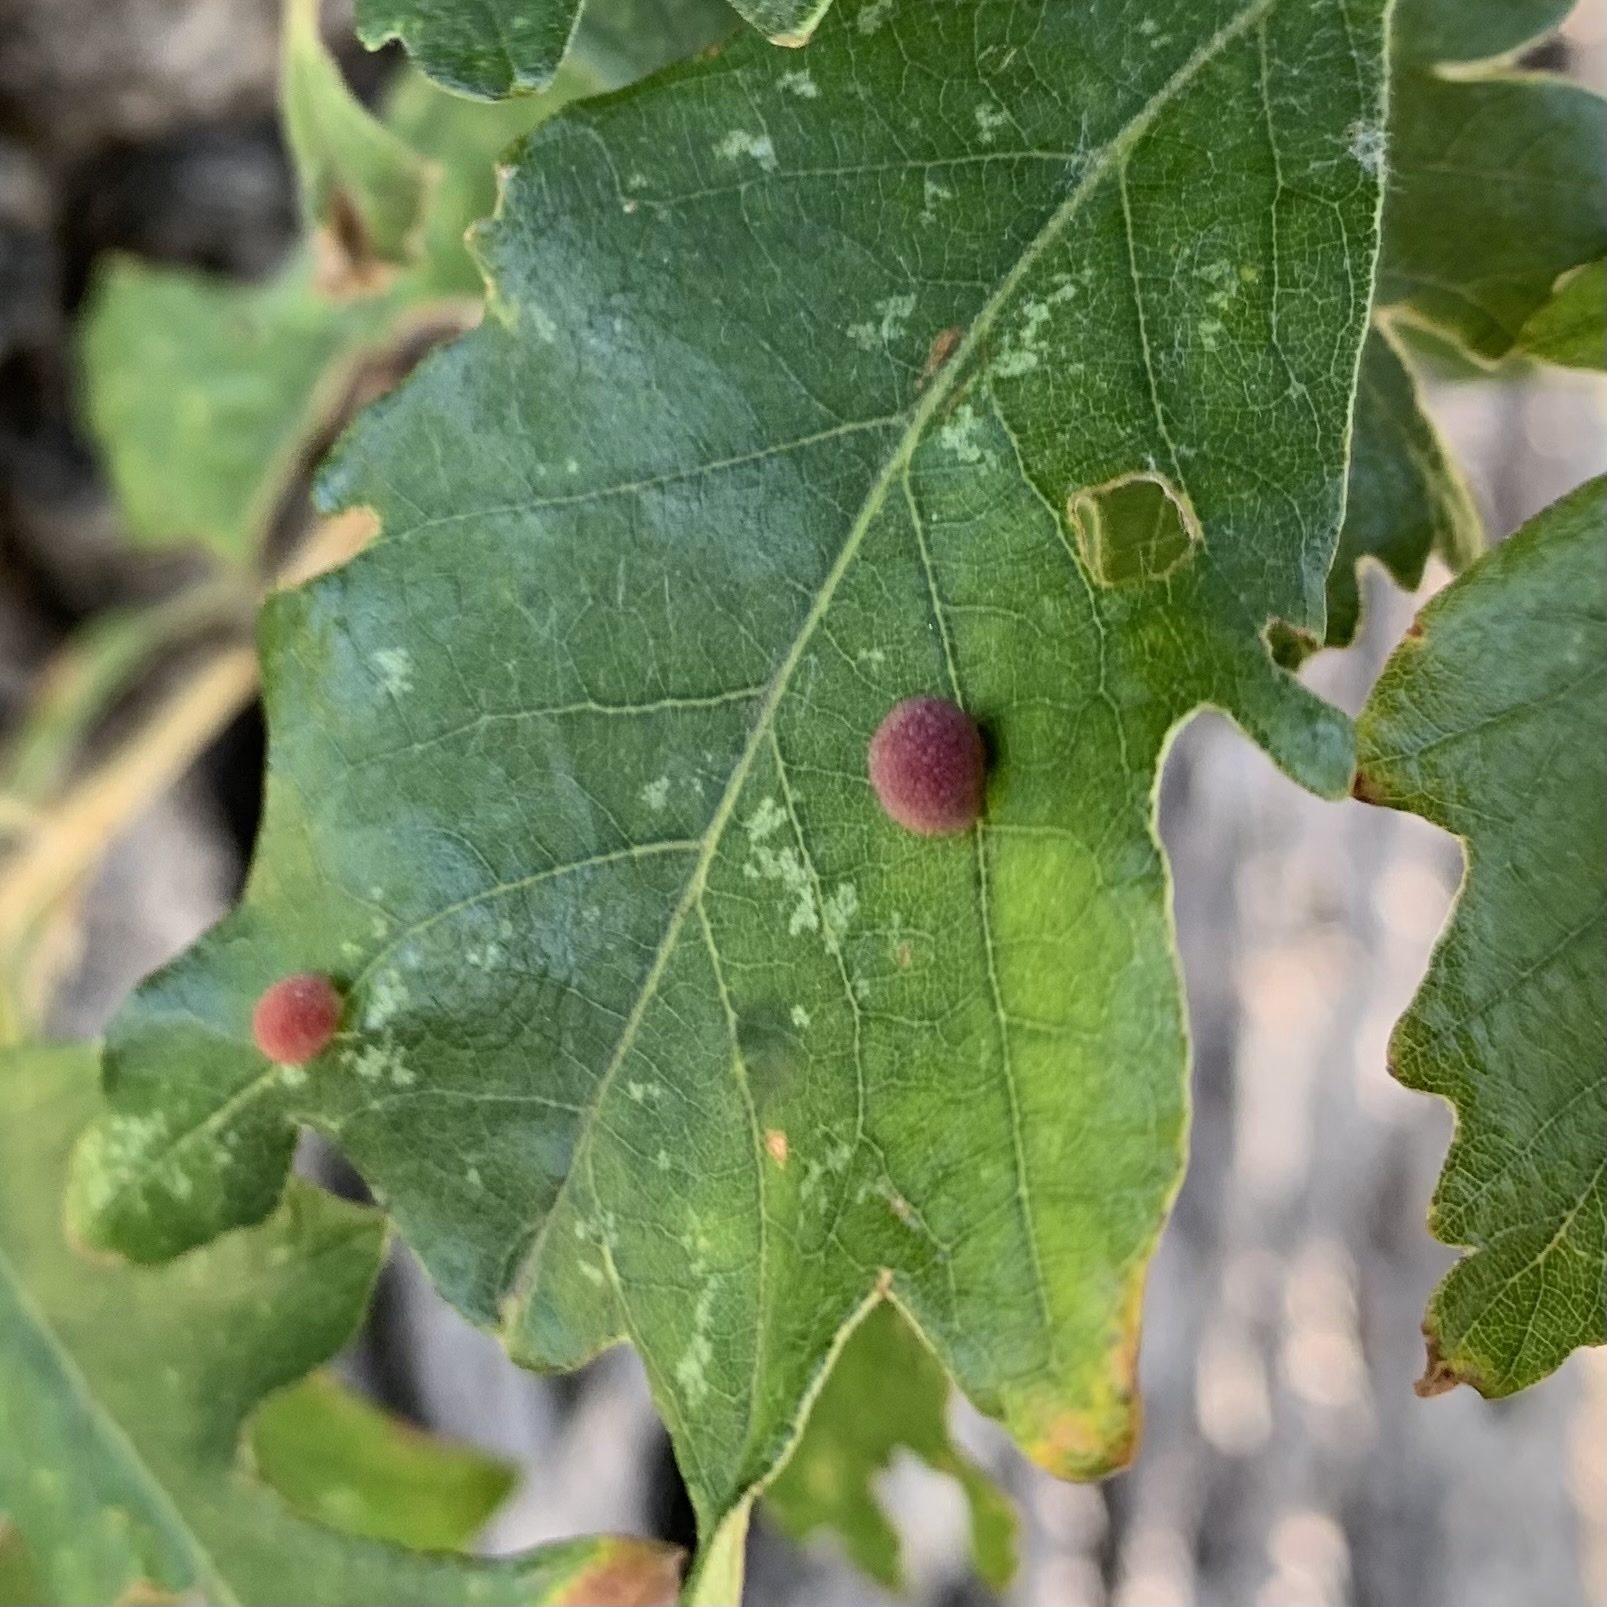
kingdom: Animalia
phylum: Arthropoda
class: Insecta
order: Hymenoptera
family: Cynipidae
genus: Acraspis
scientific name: Acraspis quercushirta
